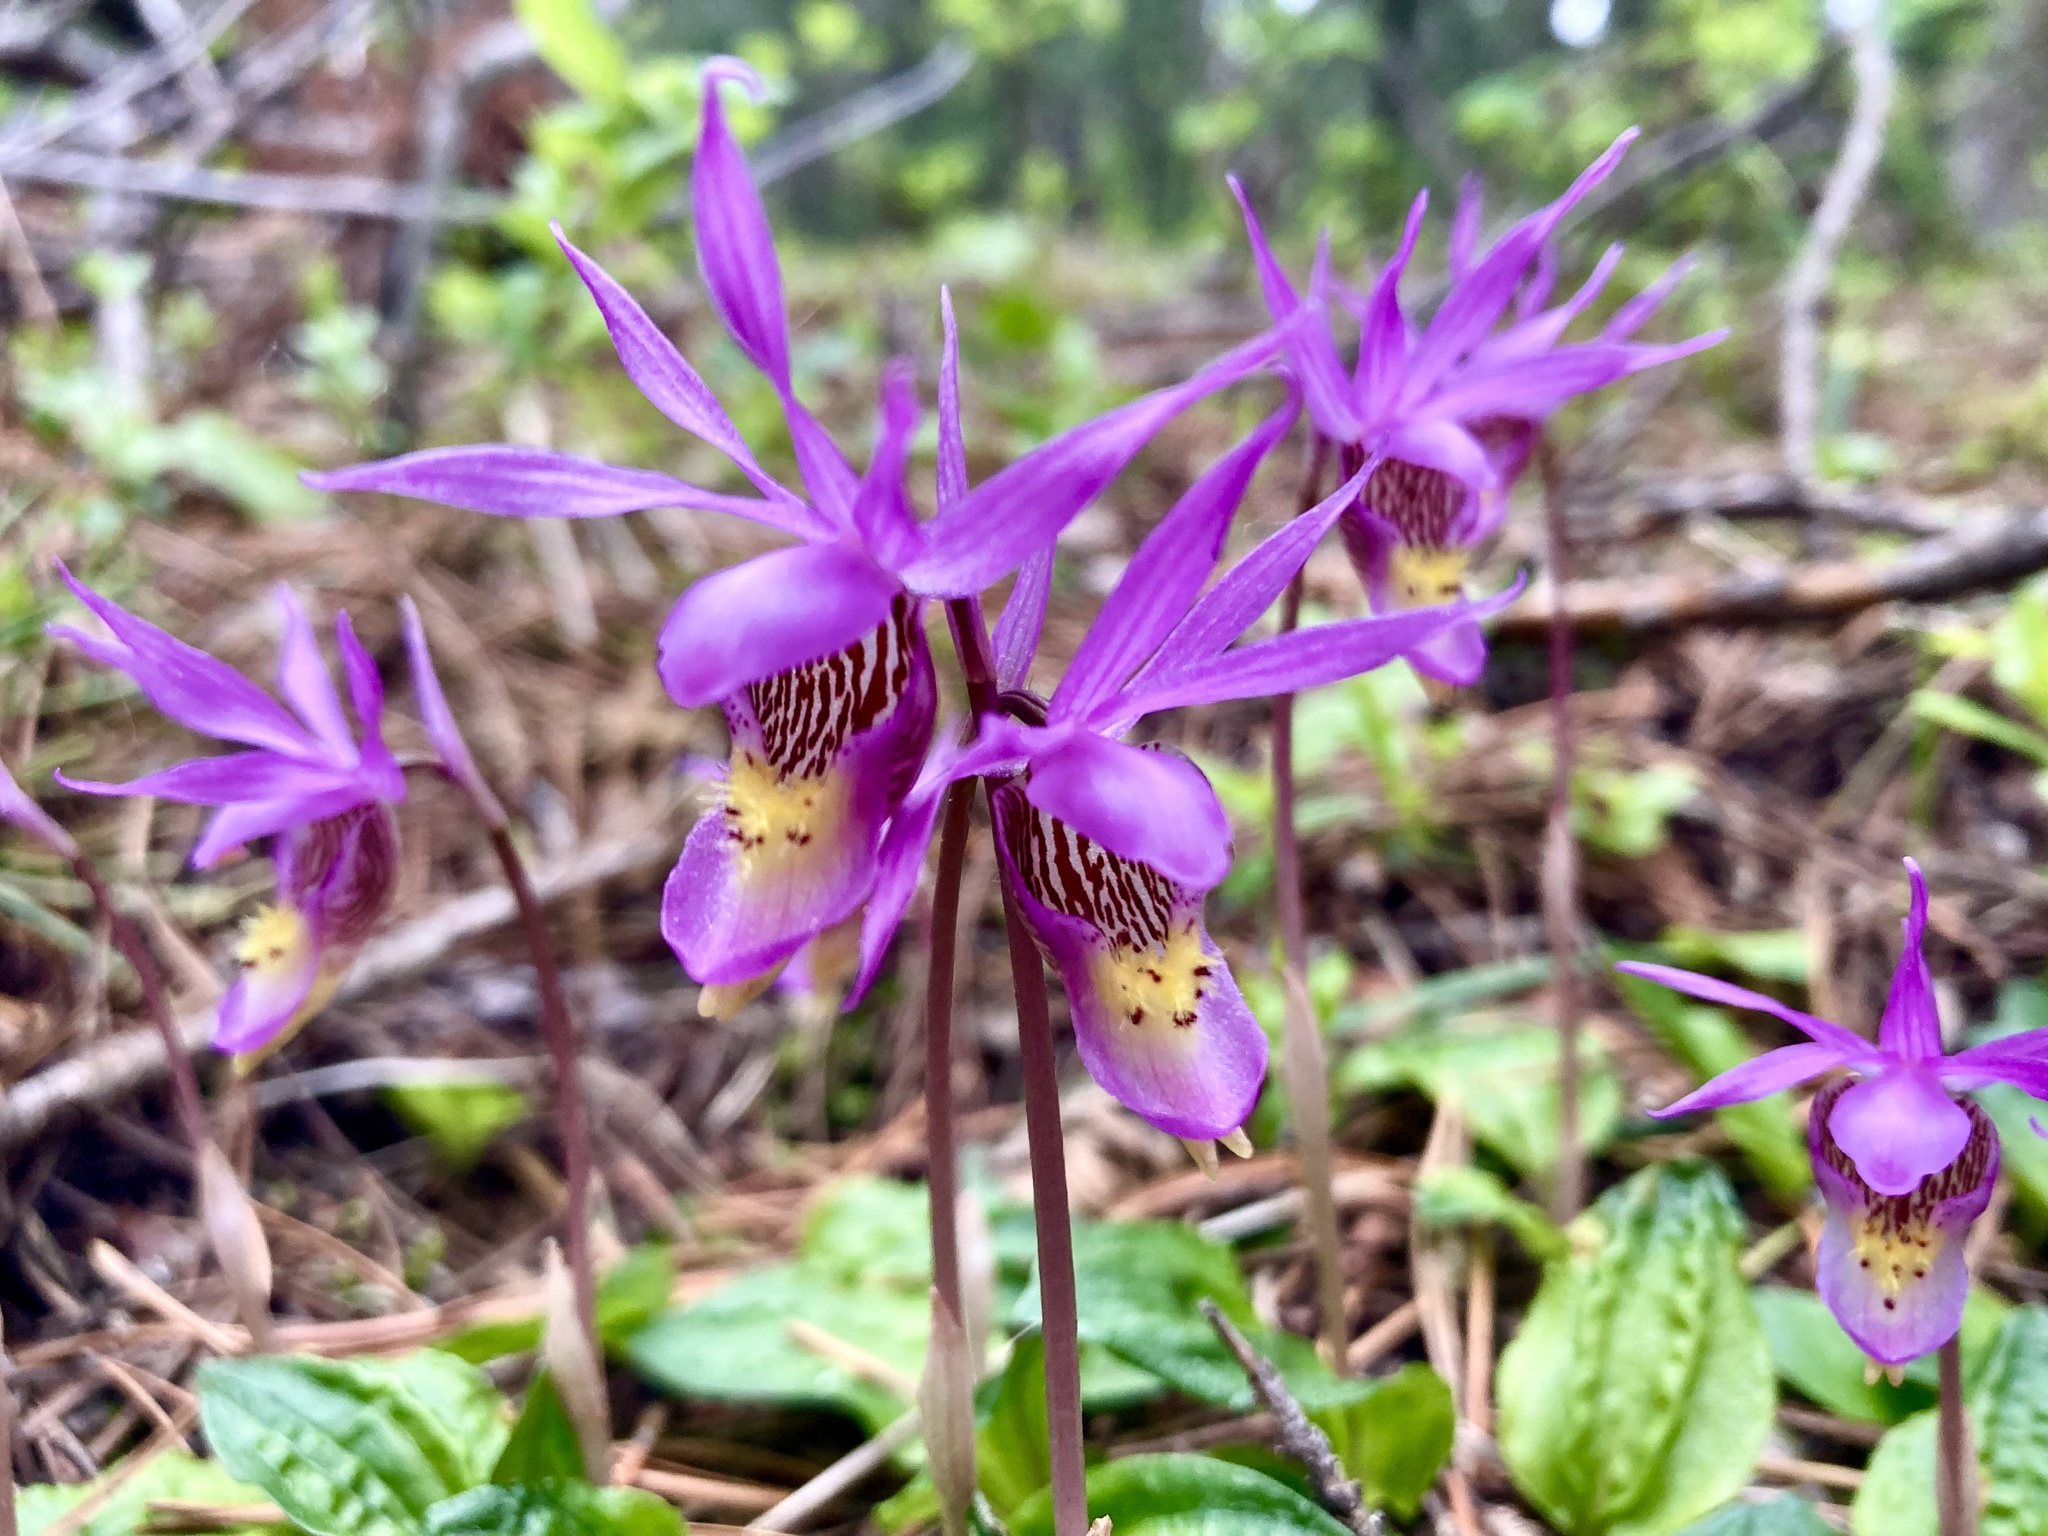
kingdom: Plantae
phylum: Tracheophyta
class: Liliopsida
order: Asparagales
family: Orchidaceae
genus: Calypso
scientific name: Calypso bulbosa
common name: Calypso
